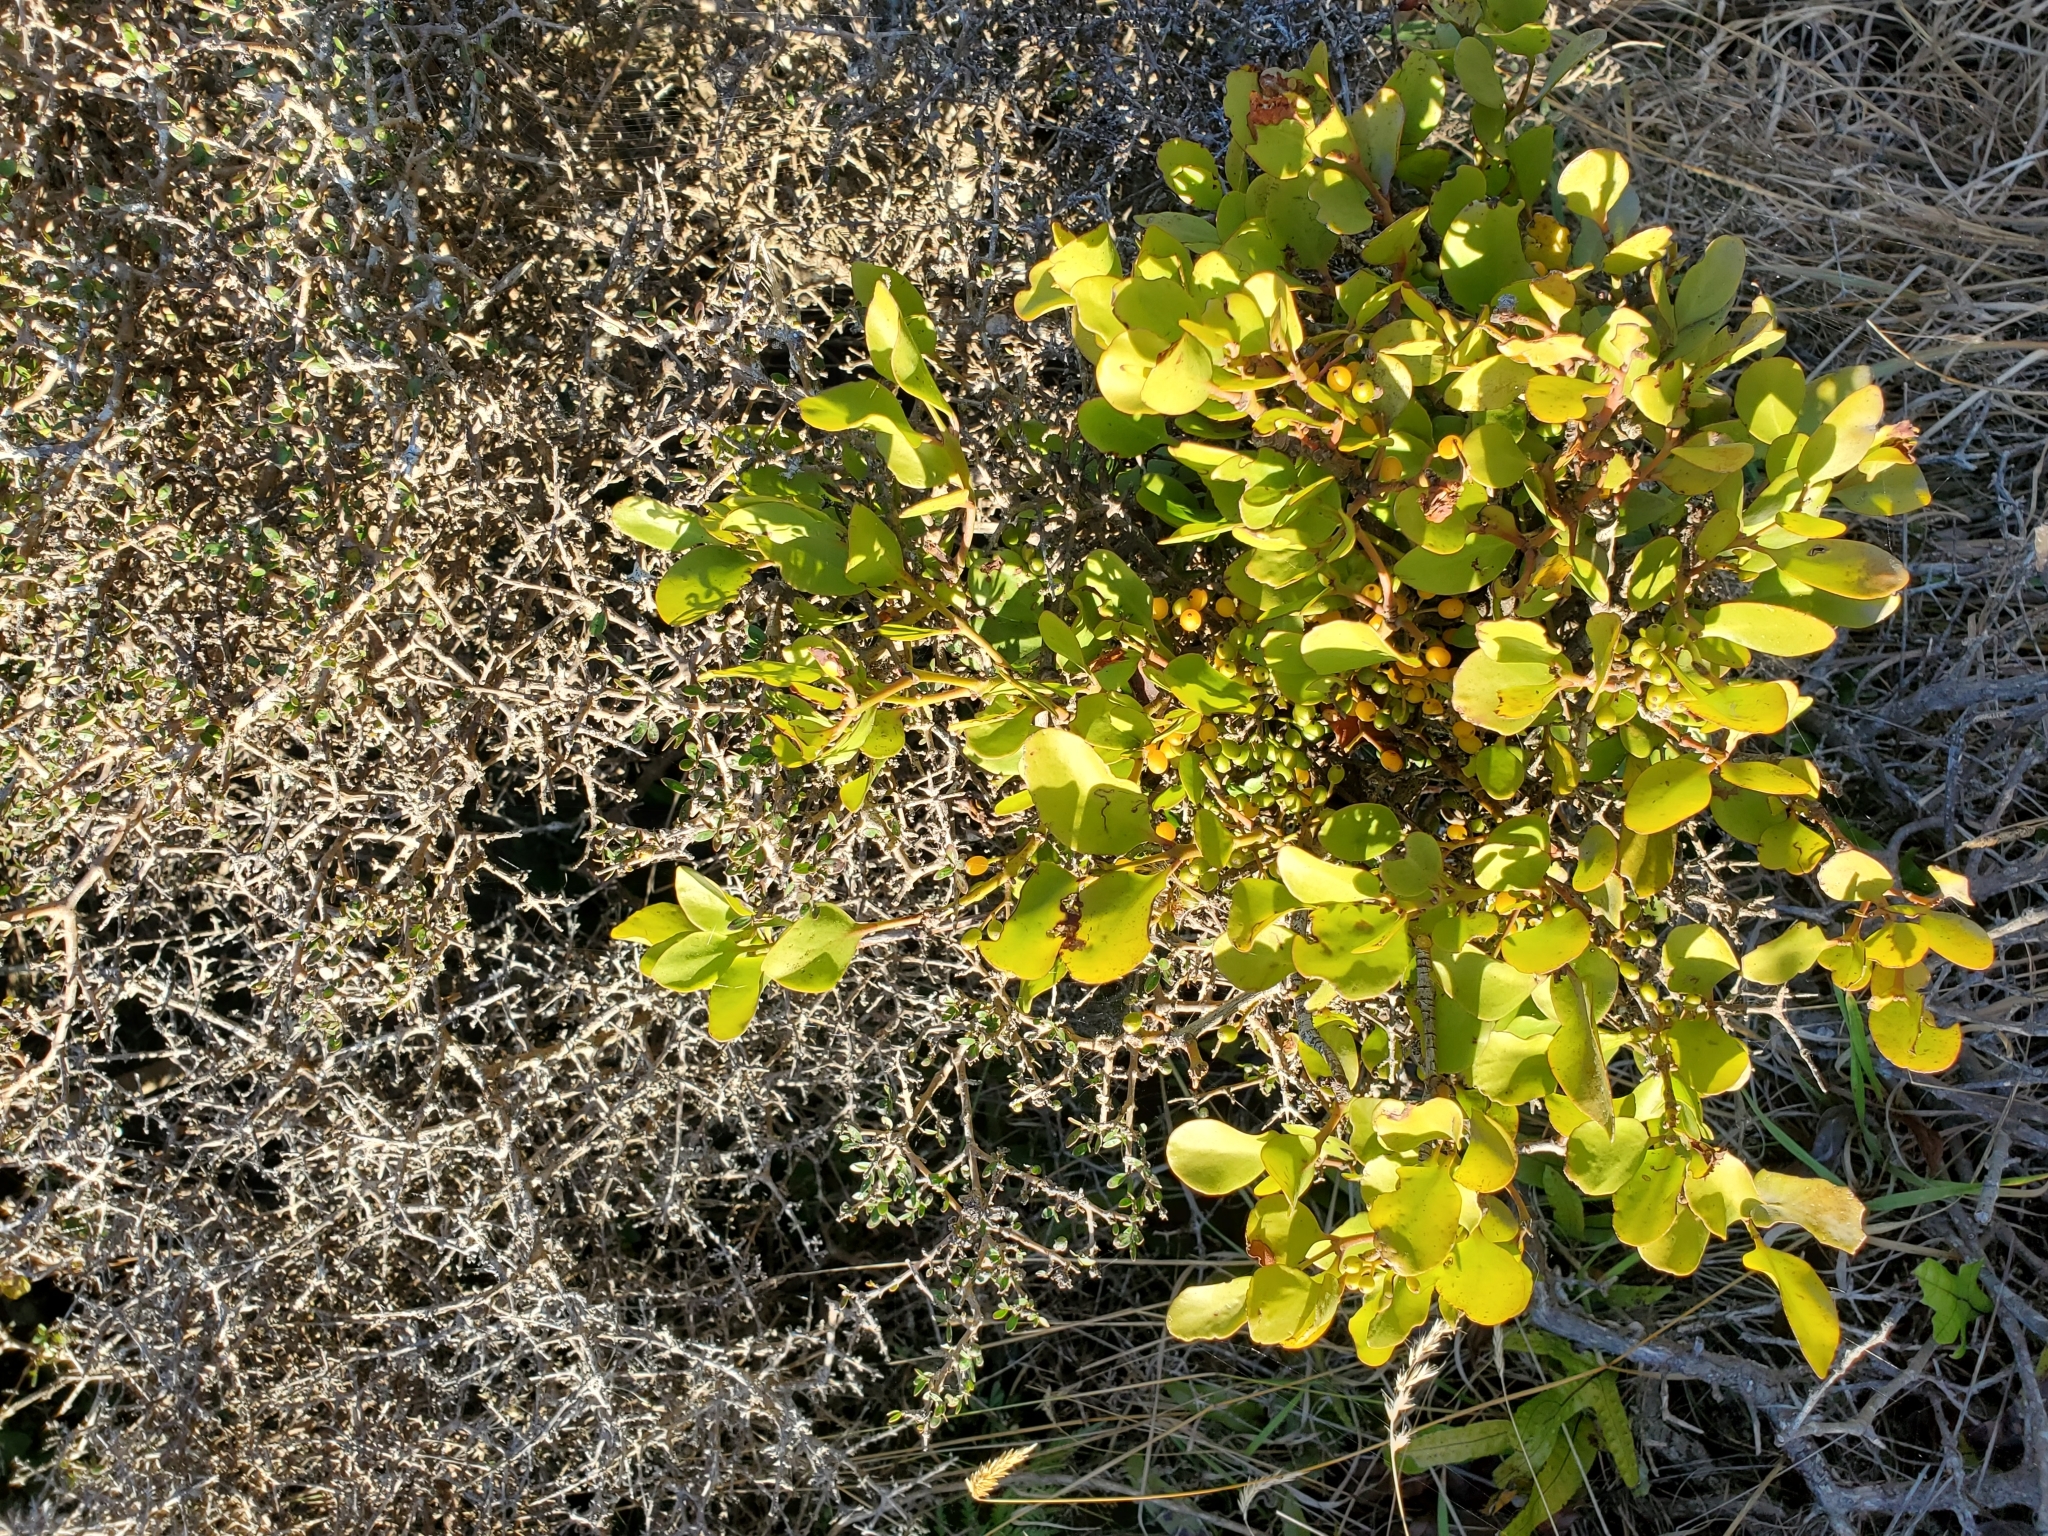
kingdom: Plantae
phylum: Tracheophyta
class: Magnoliopsida
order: Santalales
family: Loranthaceae
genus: Ileostylus
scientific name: Ileostylus micranthus
